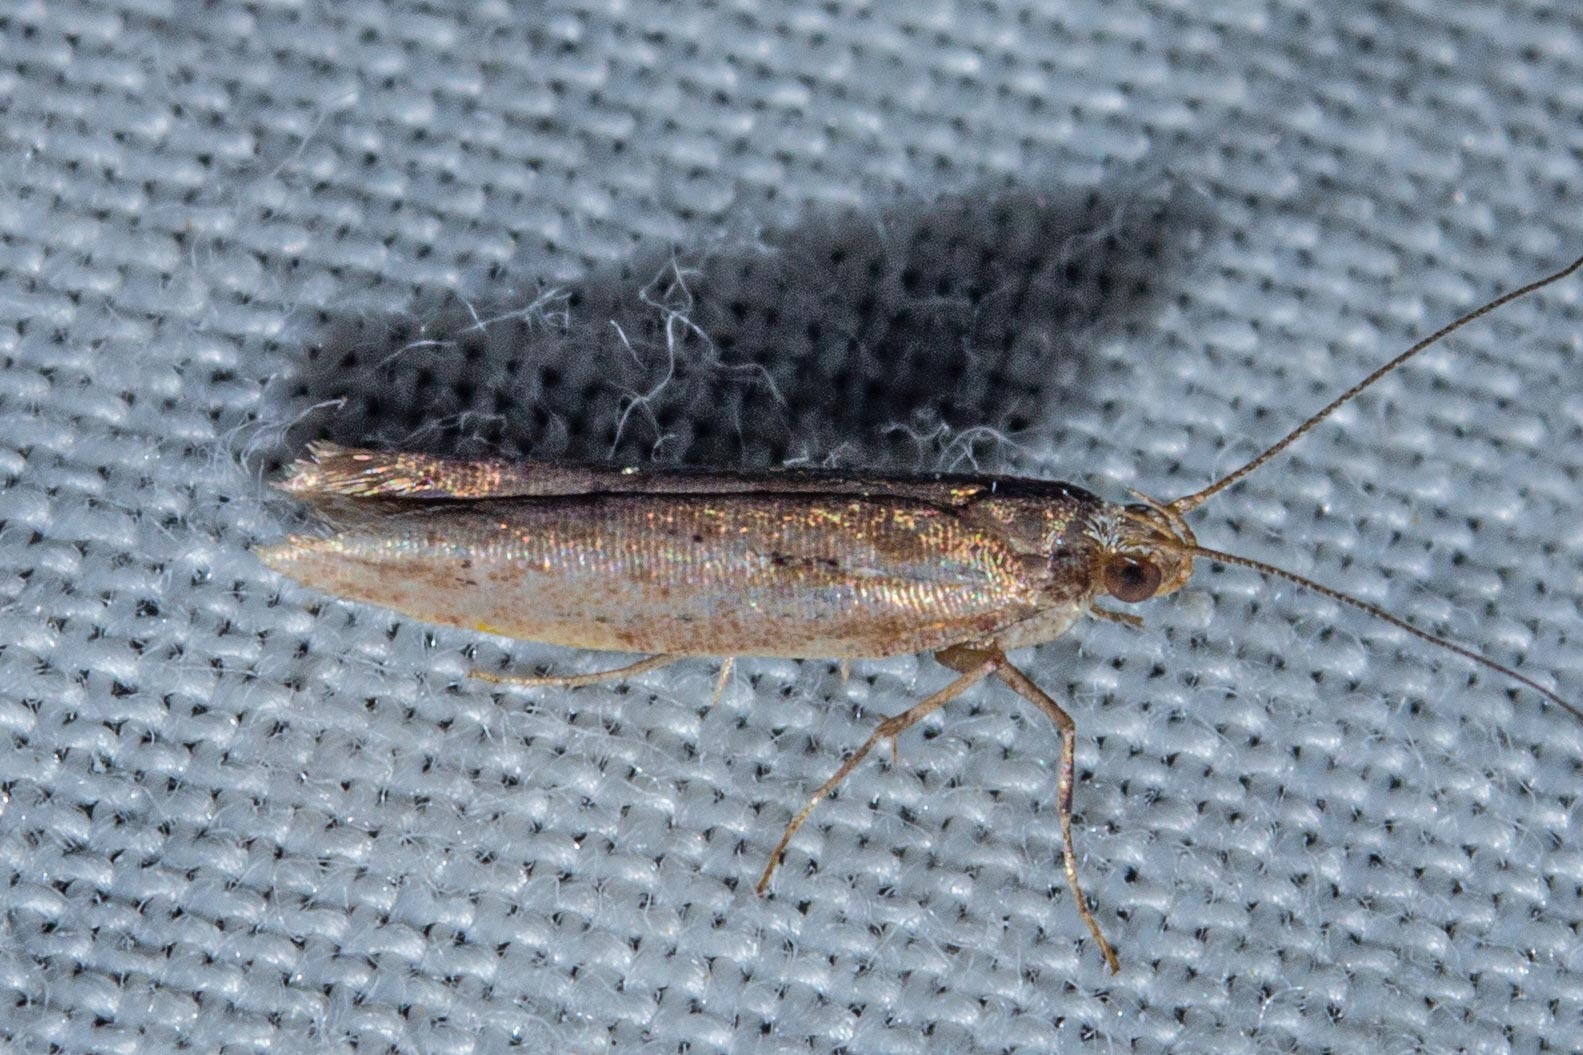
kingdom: Animalia
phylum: Arthropoda
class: Insecta
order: Lepidoptera
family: Glyphipterigidae
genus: Chrysorthenches
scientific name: Chrysorthenches porphyritis
